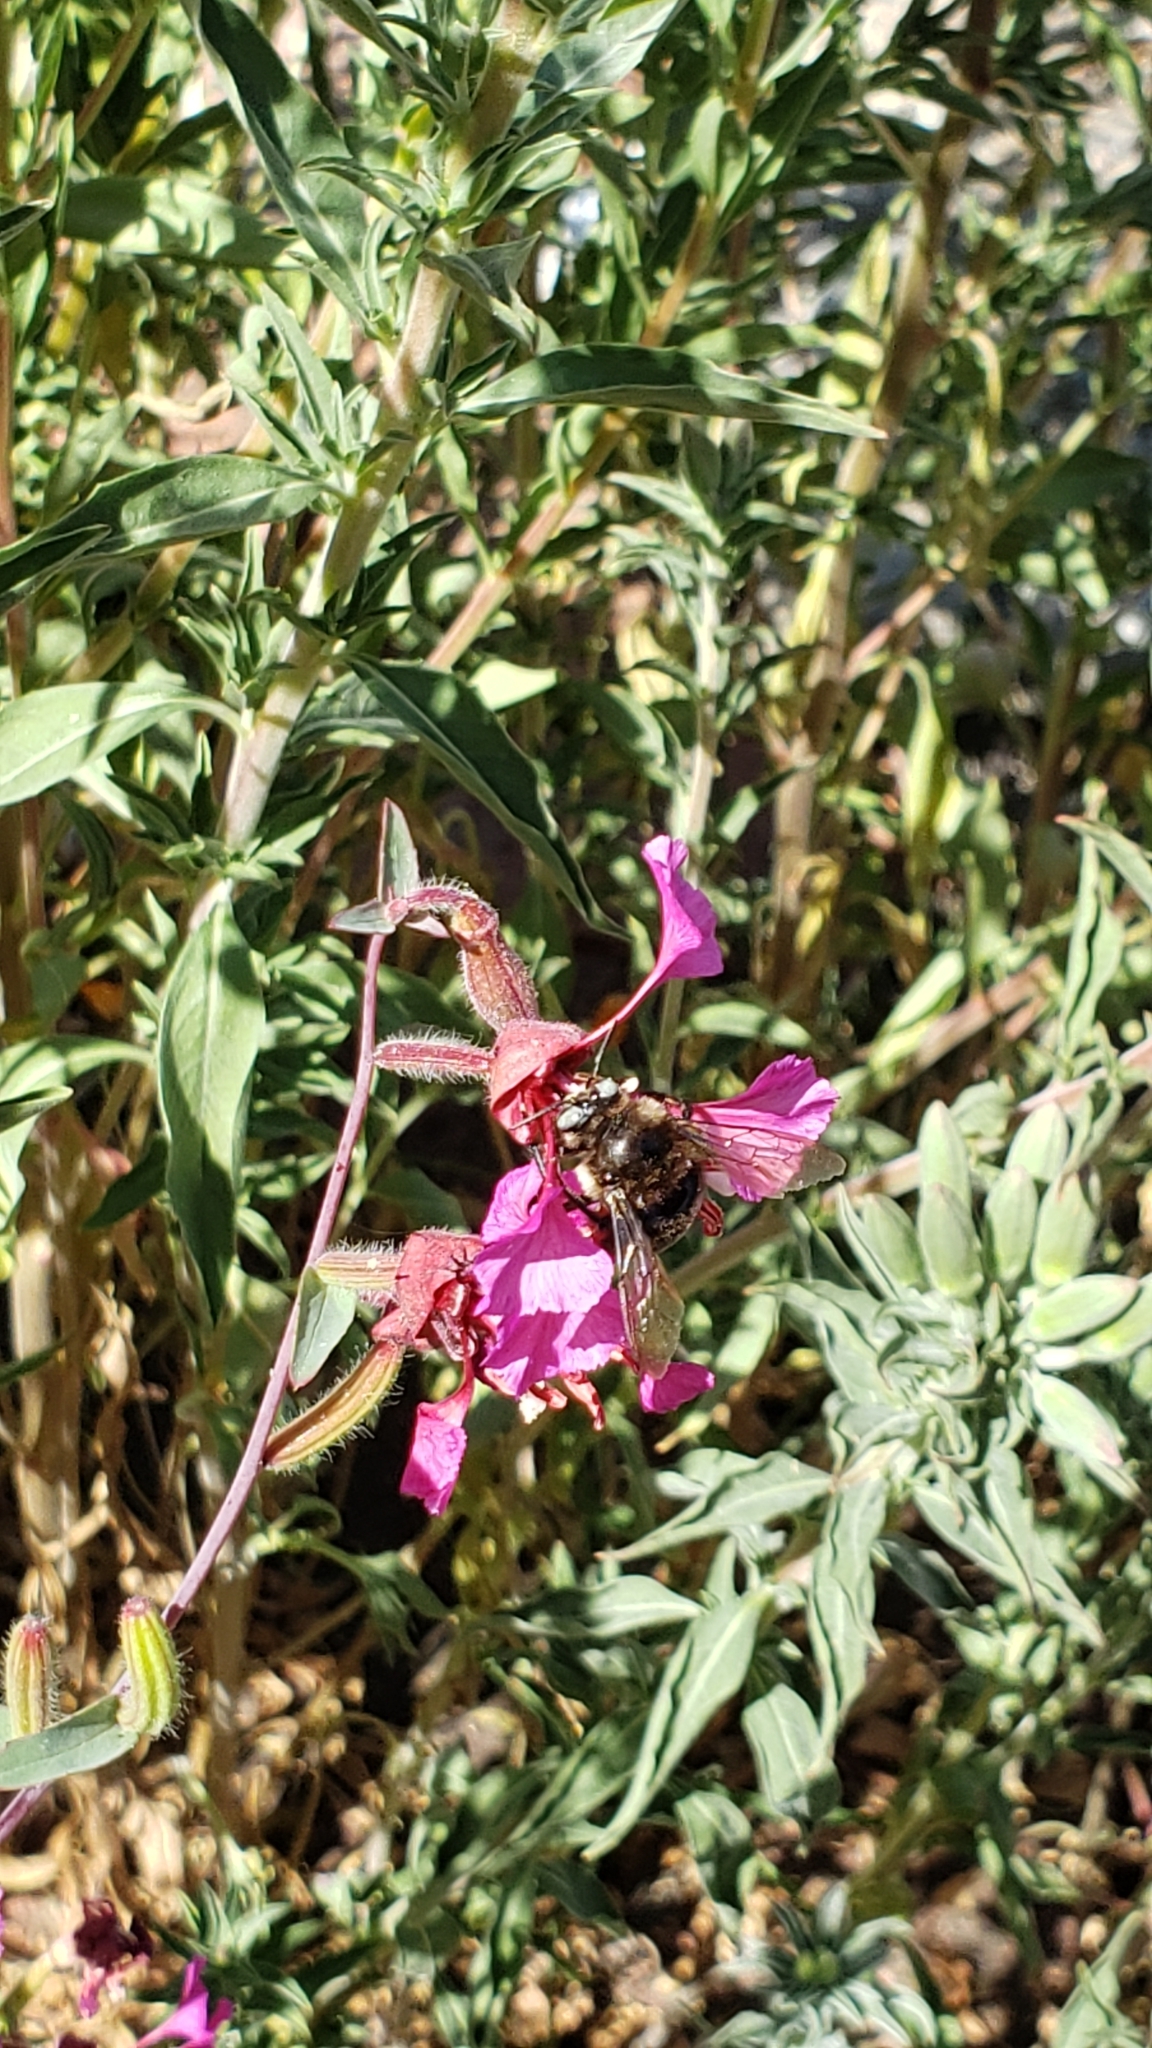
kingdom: Animalia
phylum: Arthropoda
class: Insecta
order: Hymenoptera
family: Apidae
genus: Xylocopa
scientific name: Xylocopa tabaniformis
